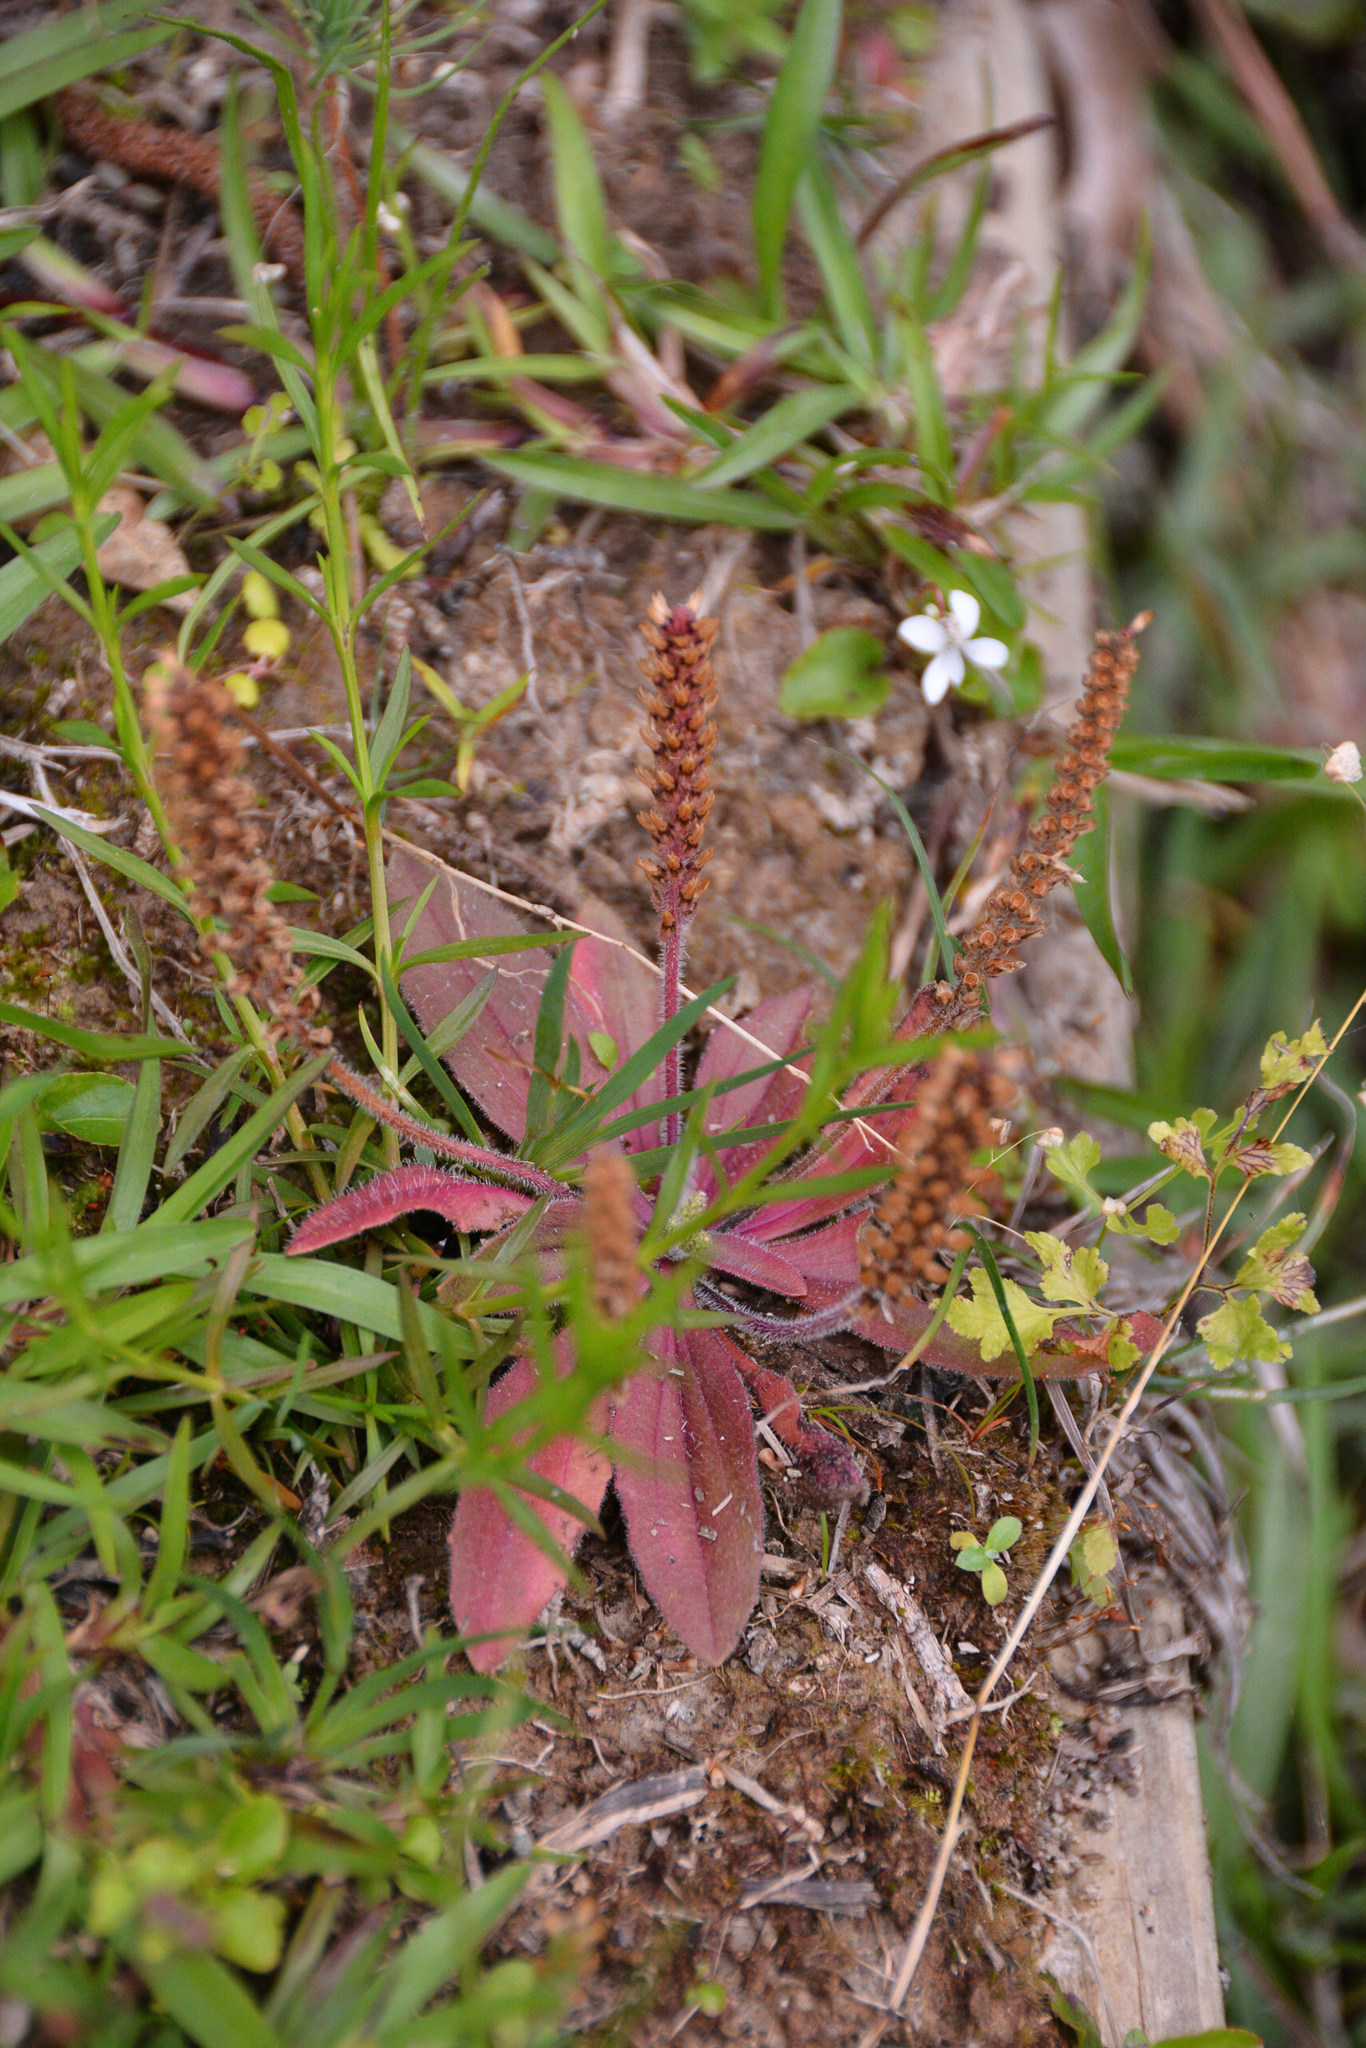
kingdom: Plantae
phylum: Tracheophyta
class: Magnoliopsida
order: Lamiales
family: Plantaginaceae
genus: Plantago
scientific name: Plantago virginica
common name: Hoary plantain
